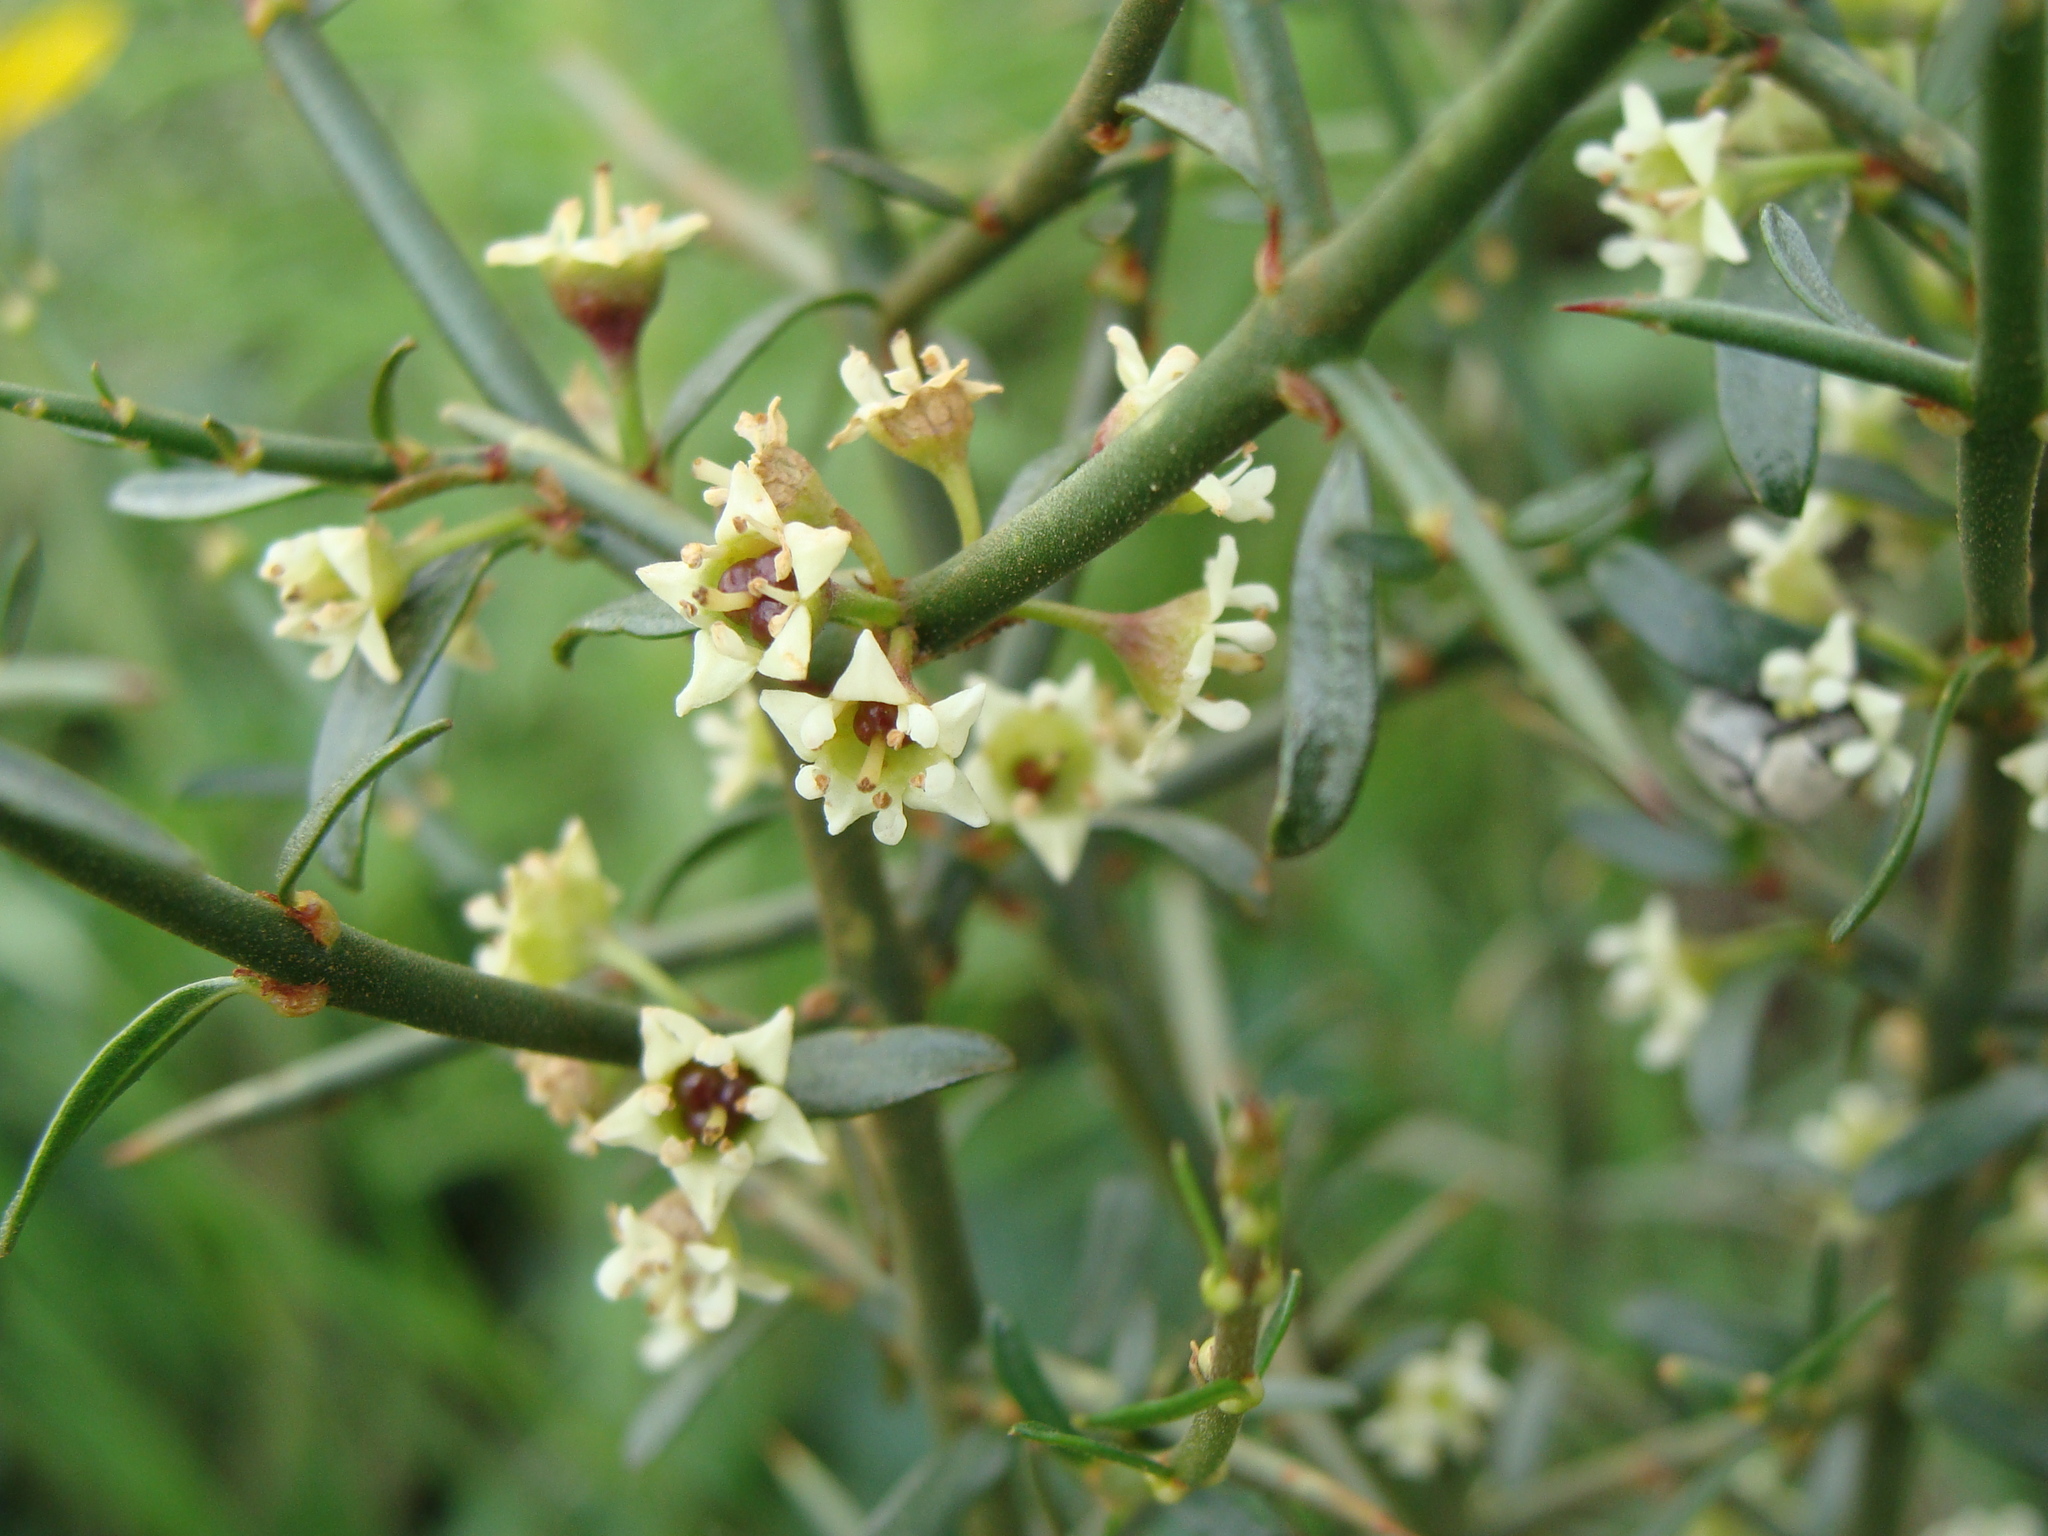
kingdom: Plantae
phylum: Tracheophyta
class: Magnoliopsida
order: Rosales
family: Rhamnaceae
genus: Adolphia
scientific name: Adolphia infesta
